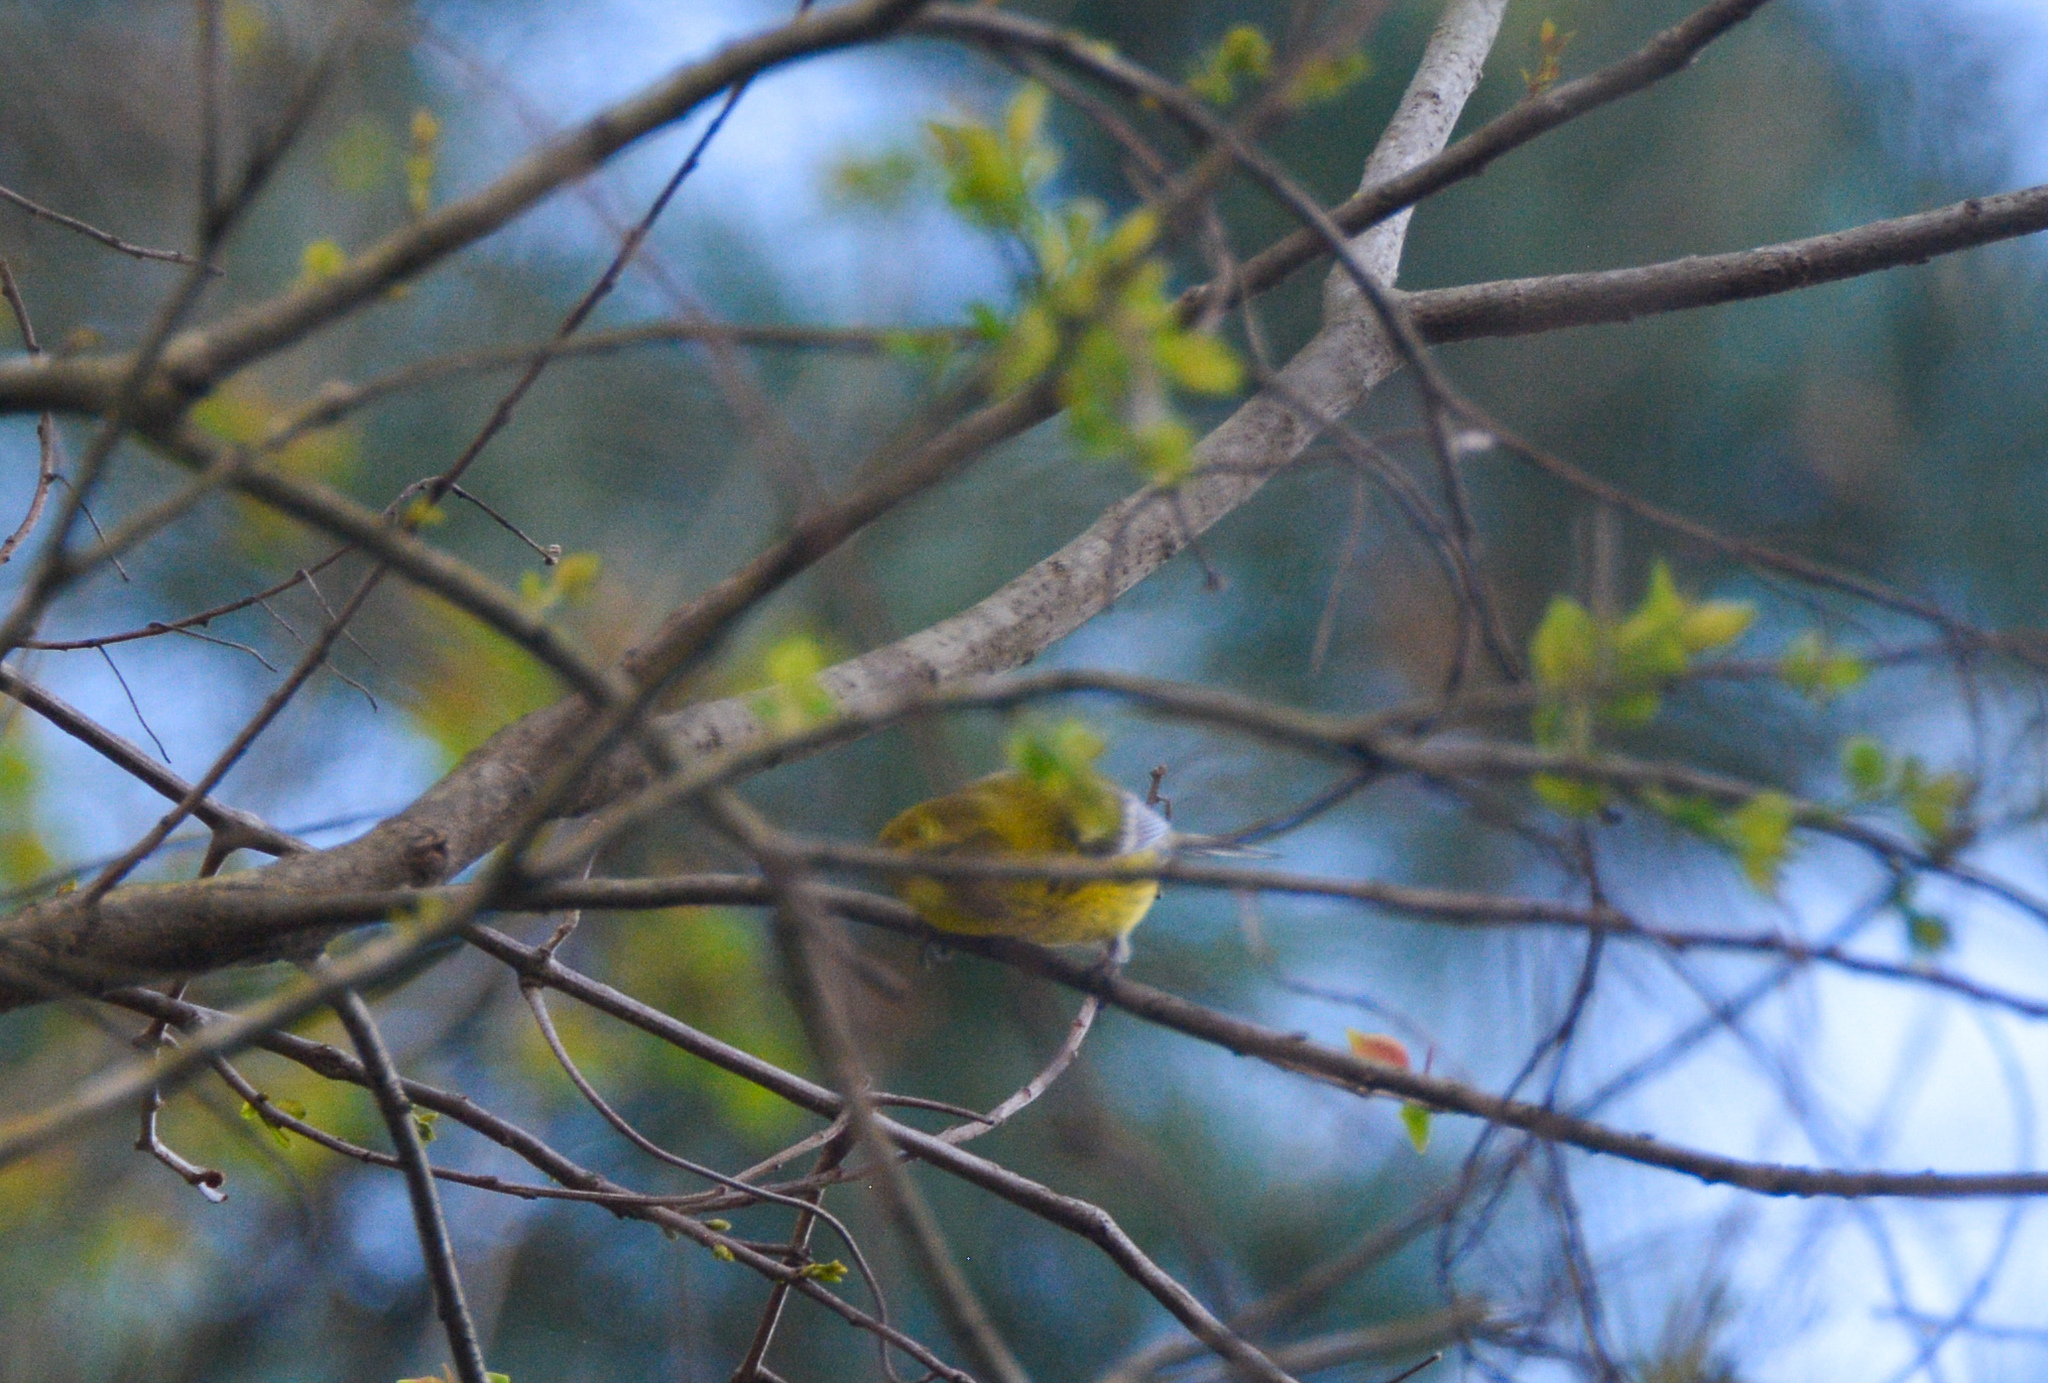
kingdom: Animalia
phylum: Chordata
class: Aves
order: Passeriformes
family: Parulidae
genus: Setophaga
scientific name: Setophaga pinus
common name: Pine warbler
